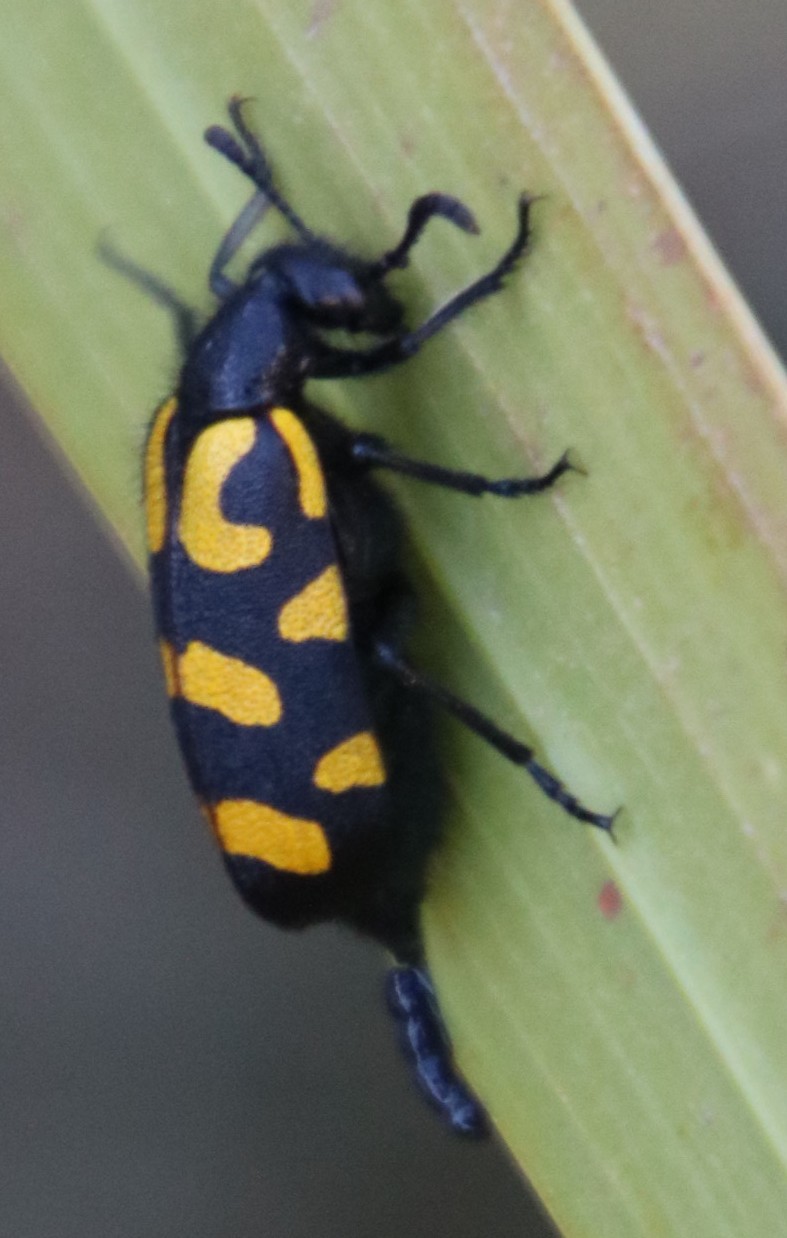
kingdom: Animalia
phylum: Arthropoda
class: Insecta
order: Coleoptera
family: Meloidae
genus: Ceroctis
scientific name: Ceroctis capensis
